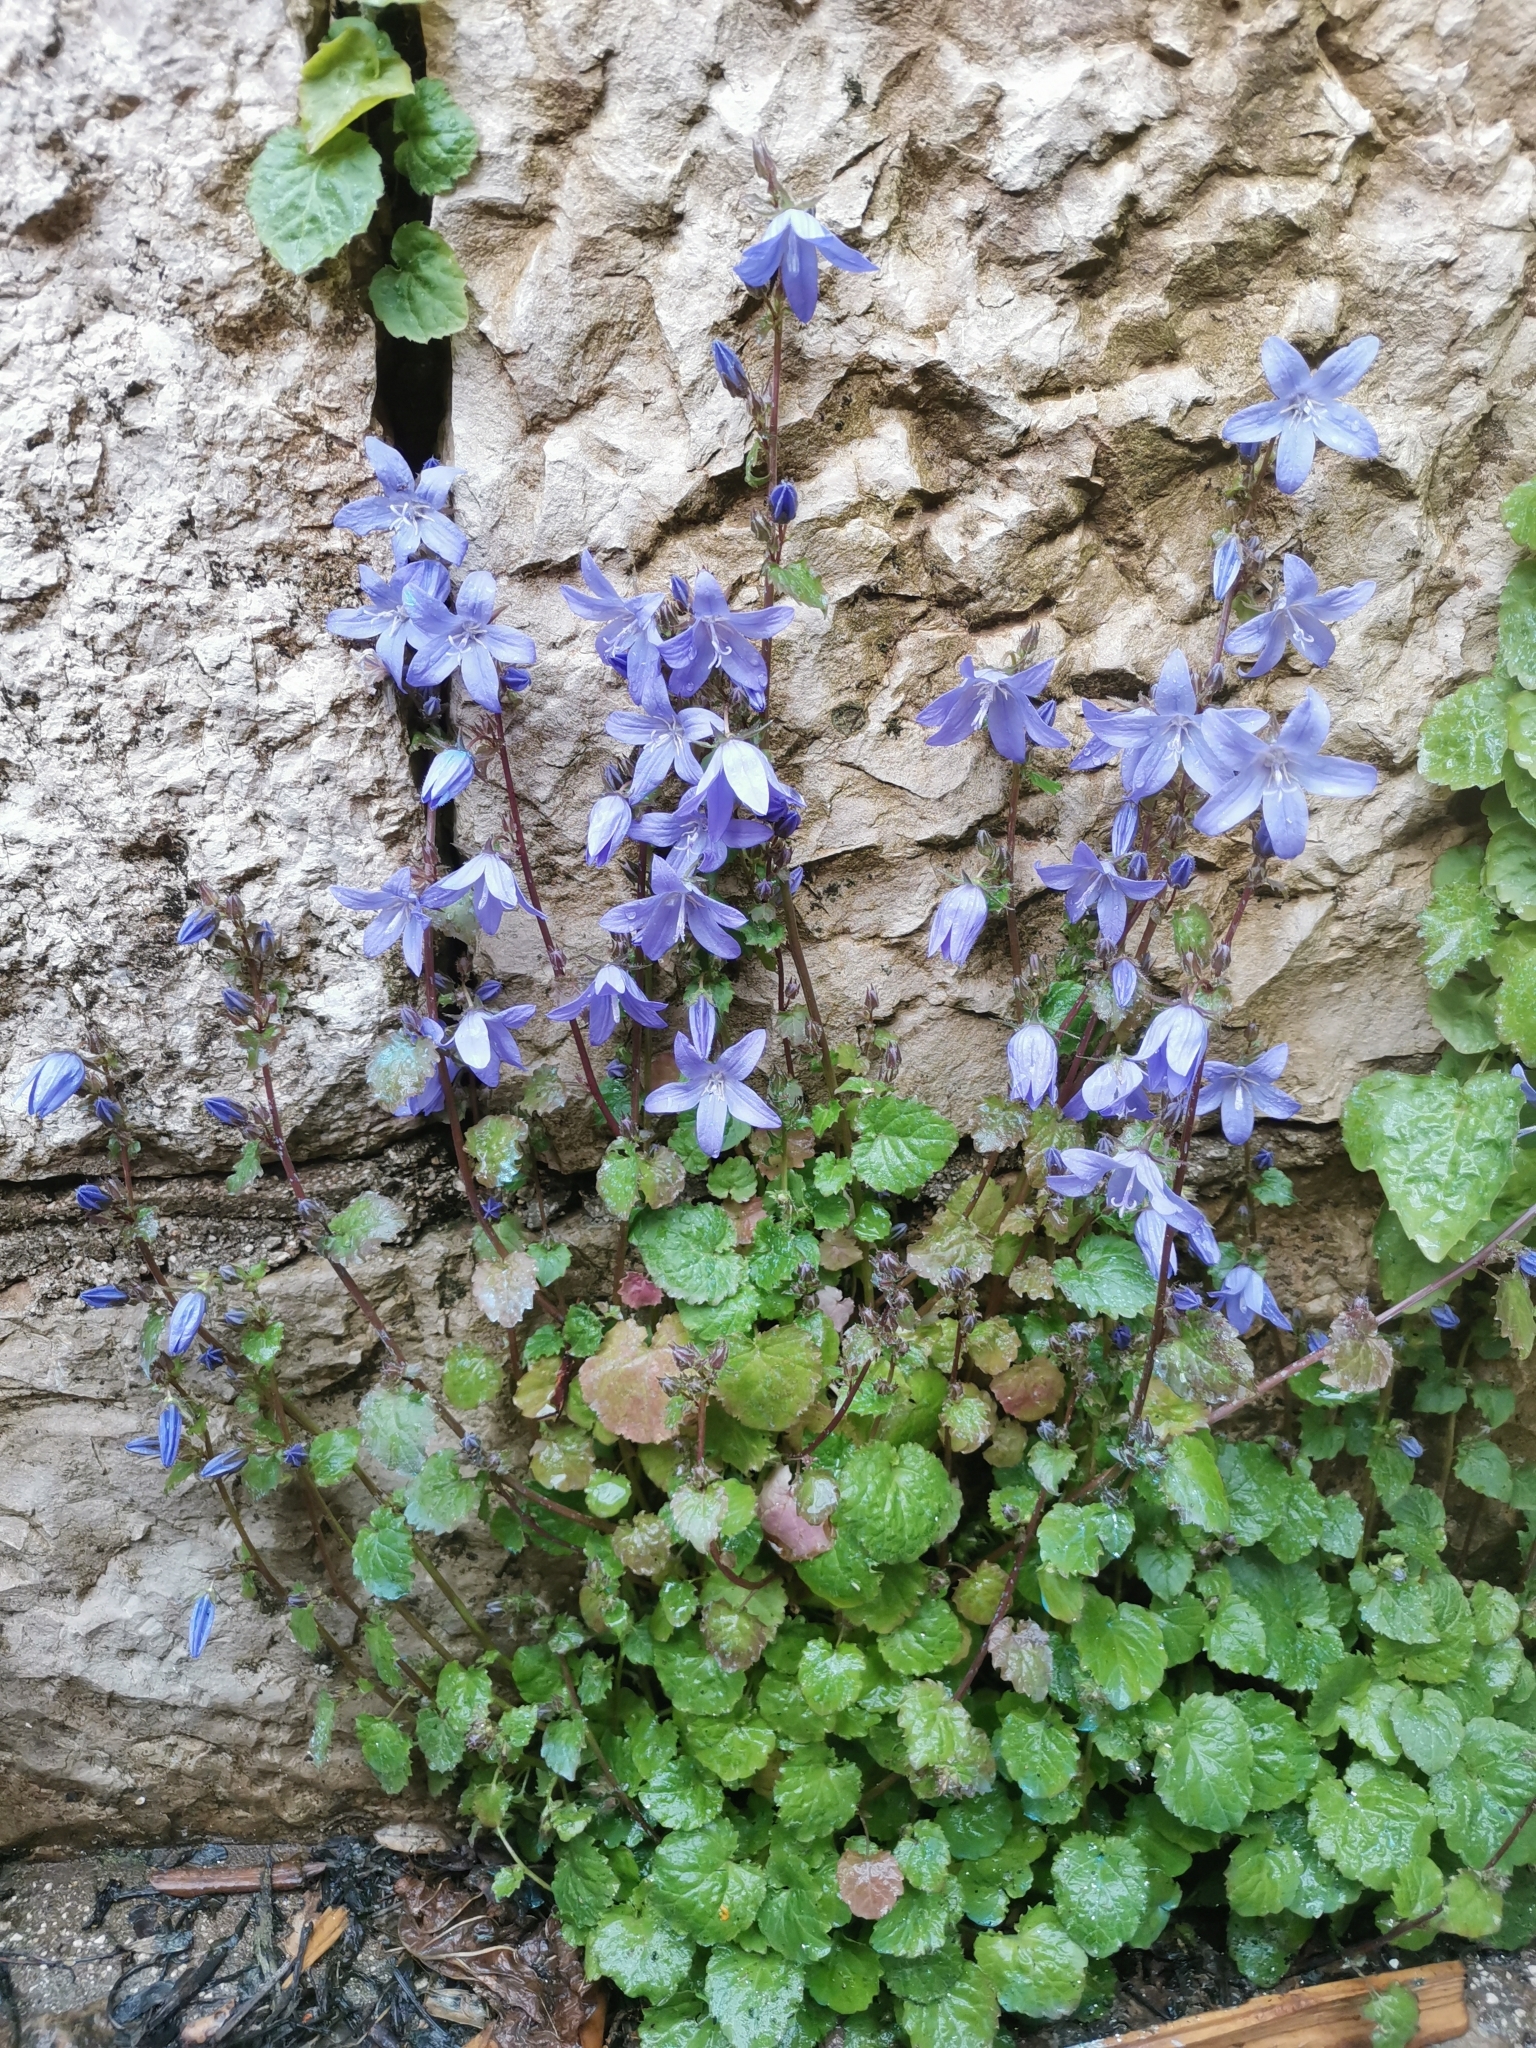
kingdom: Plantae
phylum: Tracheophyta
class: Magnoliopsida
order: Asterales
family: Campanulaceae
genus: Campanula
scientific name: Campanula poscharskyana
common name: Trailing bellflower
